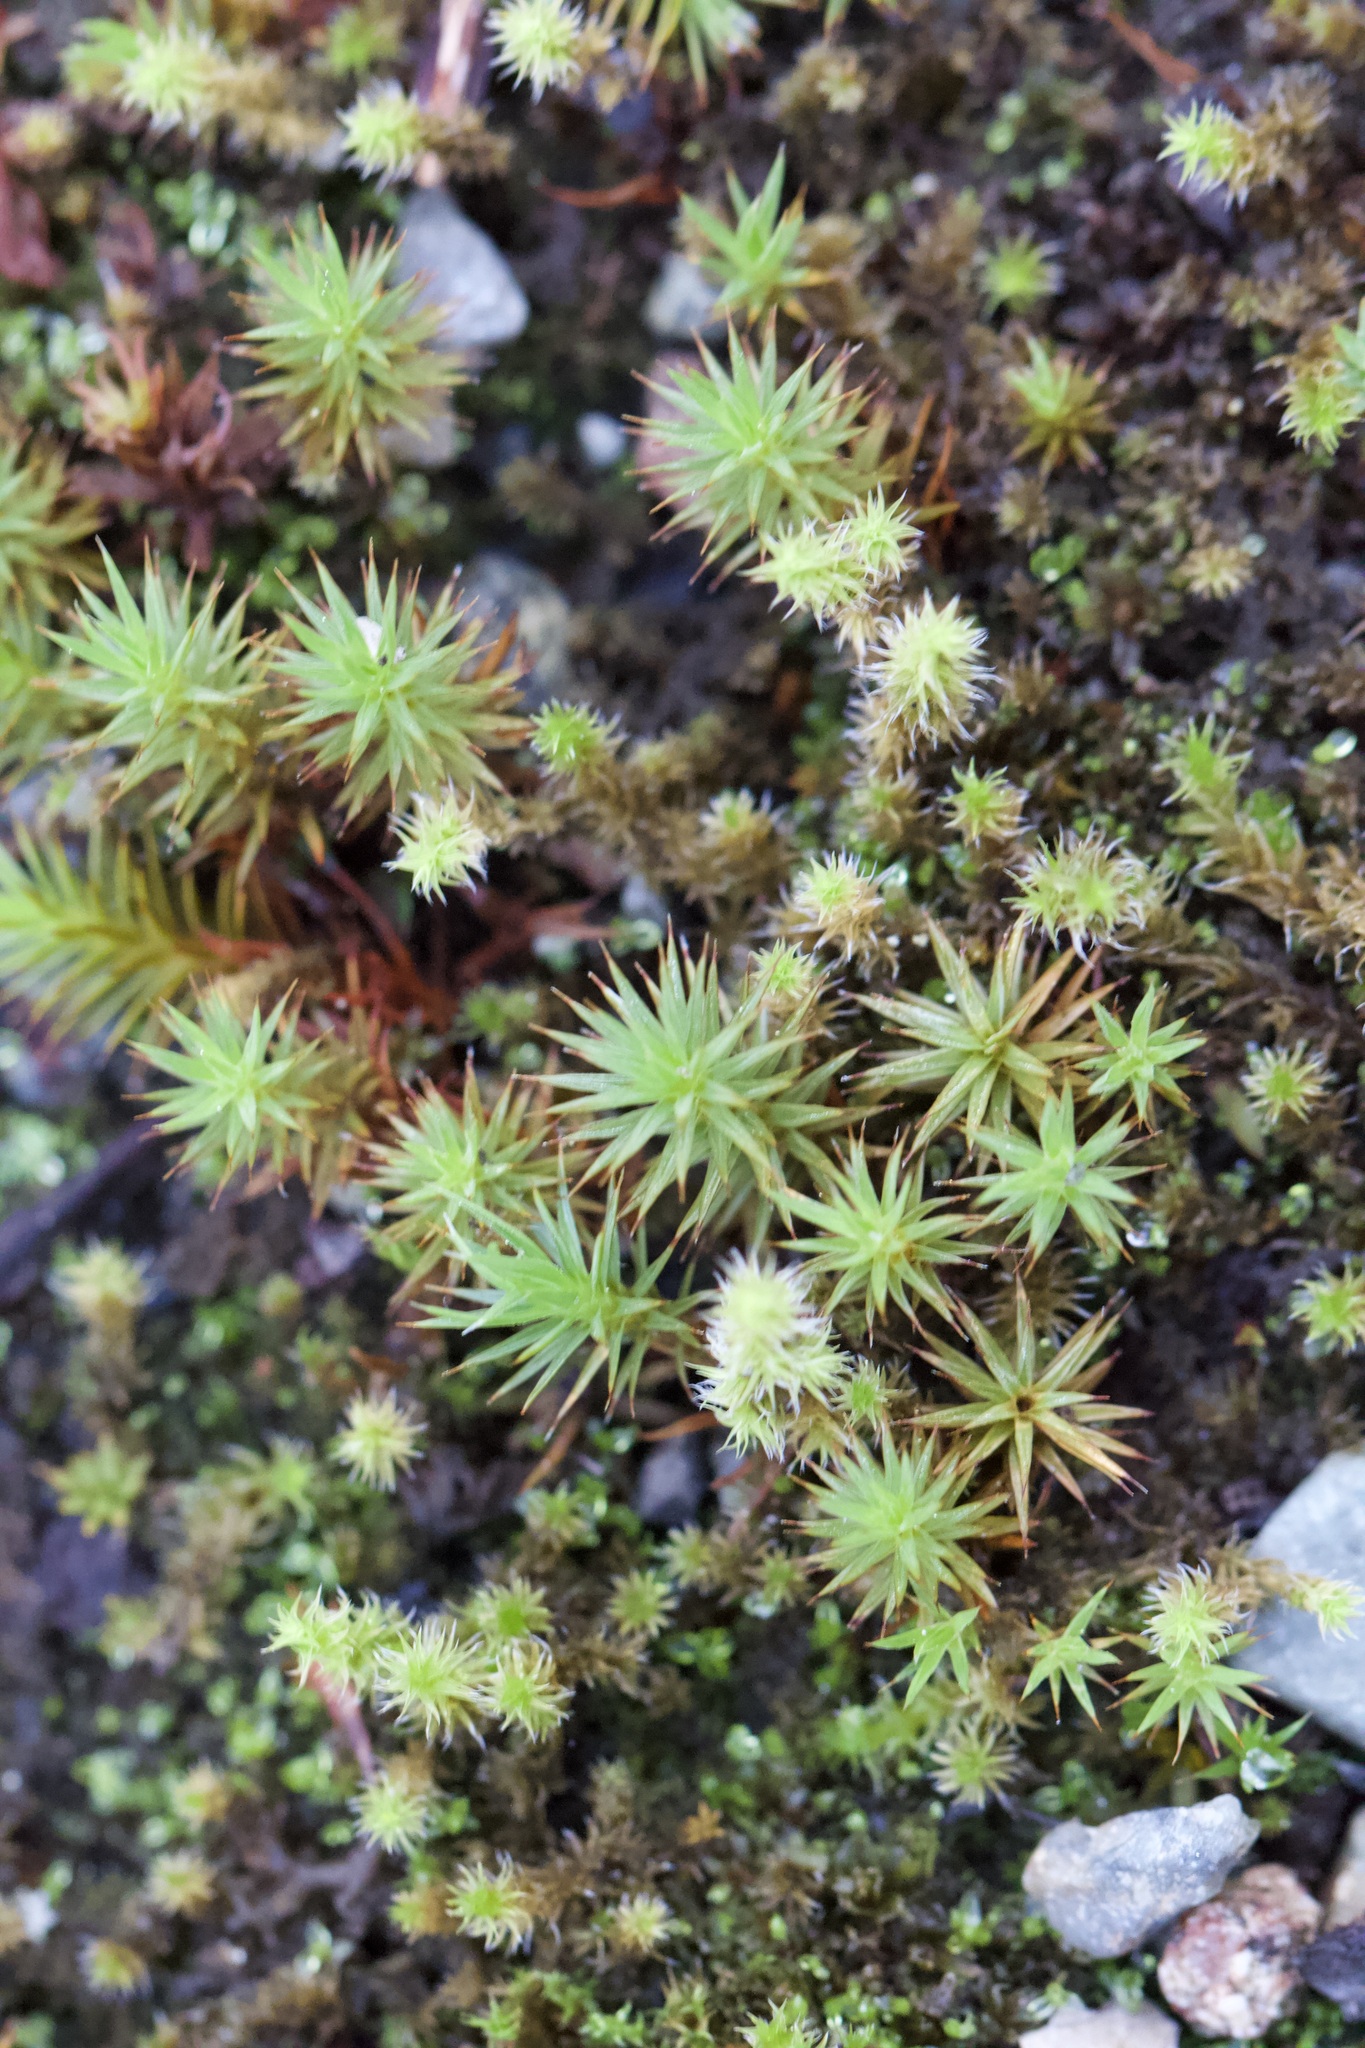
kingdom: Plantae
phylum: Bryophyta
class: Polytrichopsida
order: Polytrichales
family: Polytrichaceae
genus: Polytrichum
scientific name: Polytrichum juniperinum
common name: Juniper haircap moss
